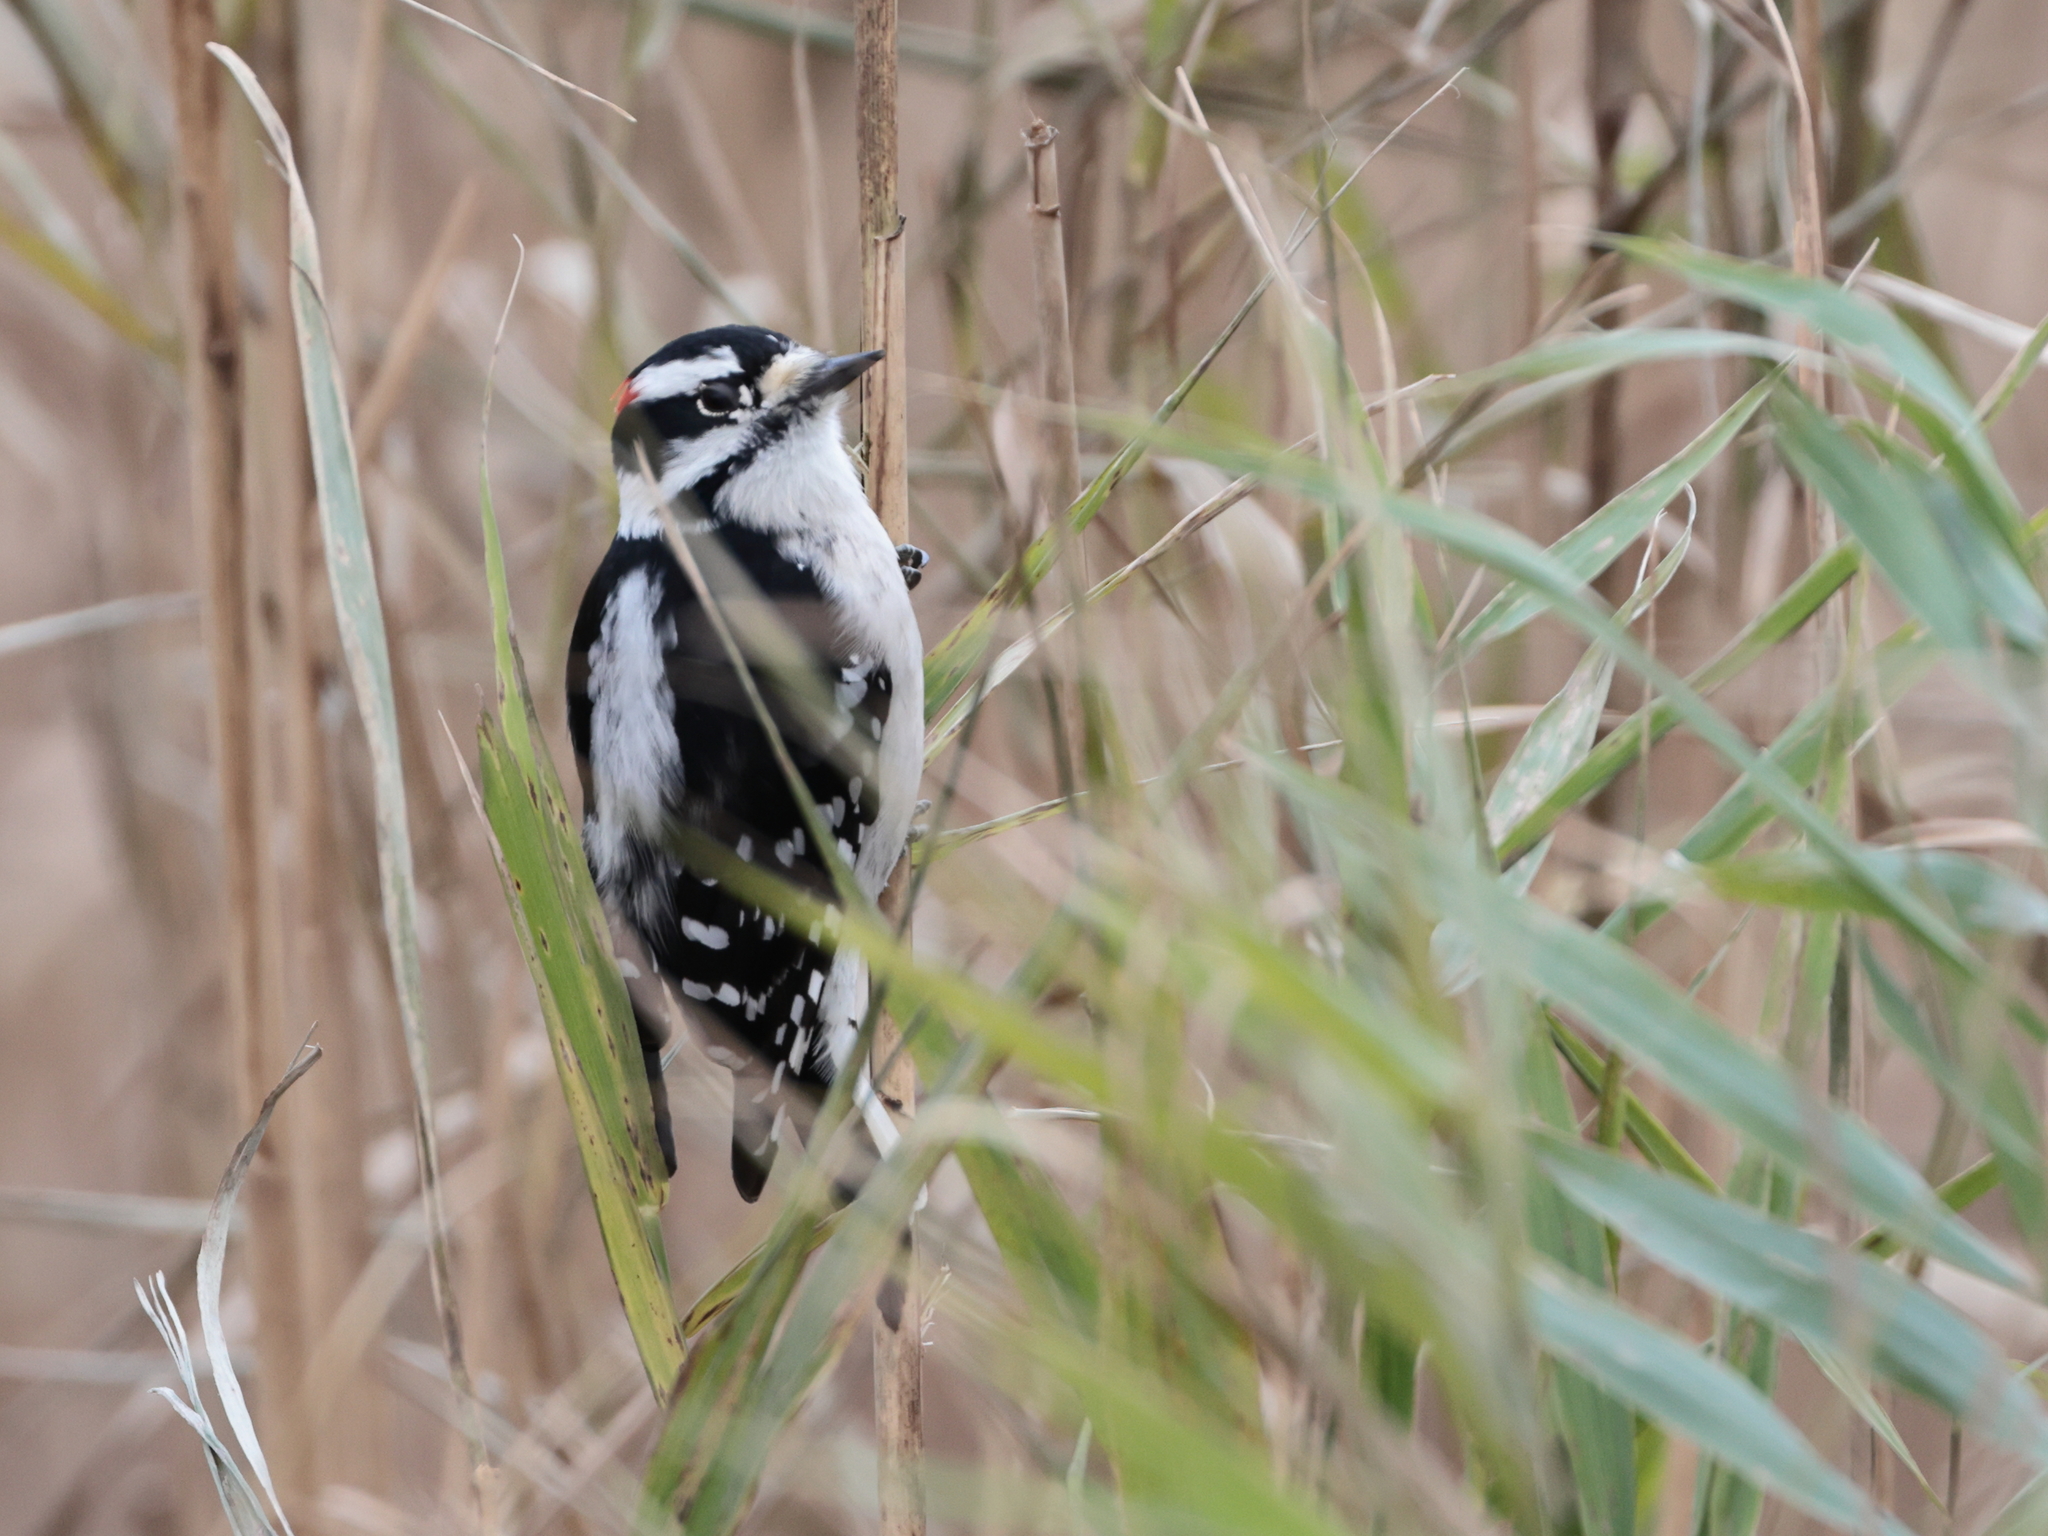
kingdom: Animalia
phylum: Chordata
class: Aves
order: Piciformes
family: Picidae
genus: Dryobates
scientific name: Dryobates pubescens
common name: Downy woodpecker
